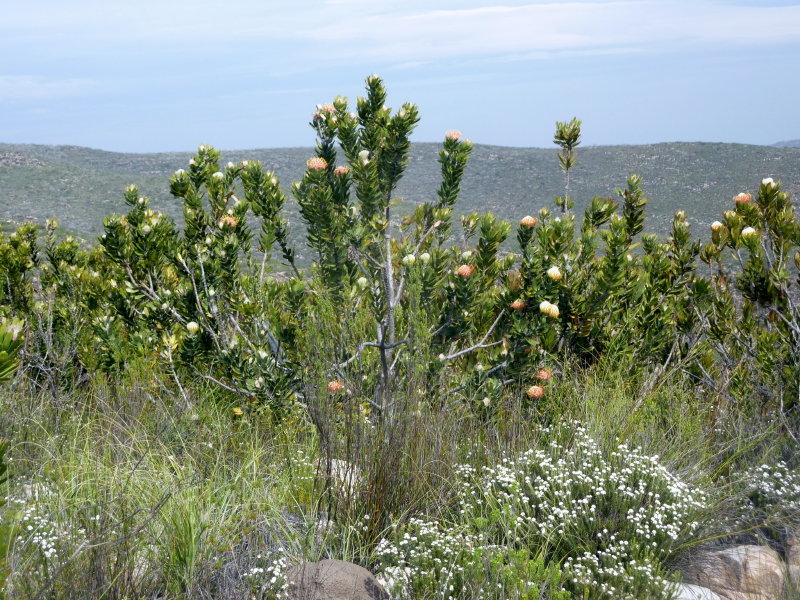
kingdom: Plantae
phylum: Tracheophyta
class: Magnoliopsida
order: Proteales
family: Proteaceae
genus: Leucospermum
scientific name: Leucospermum pluridens
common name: Robinson pincushion
